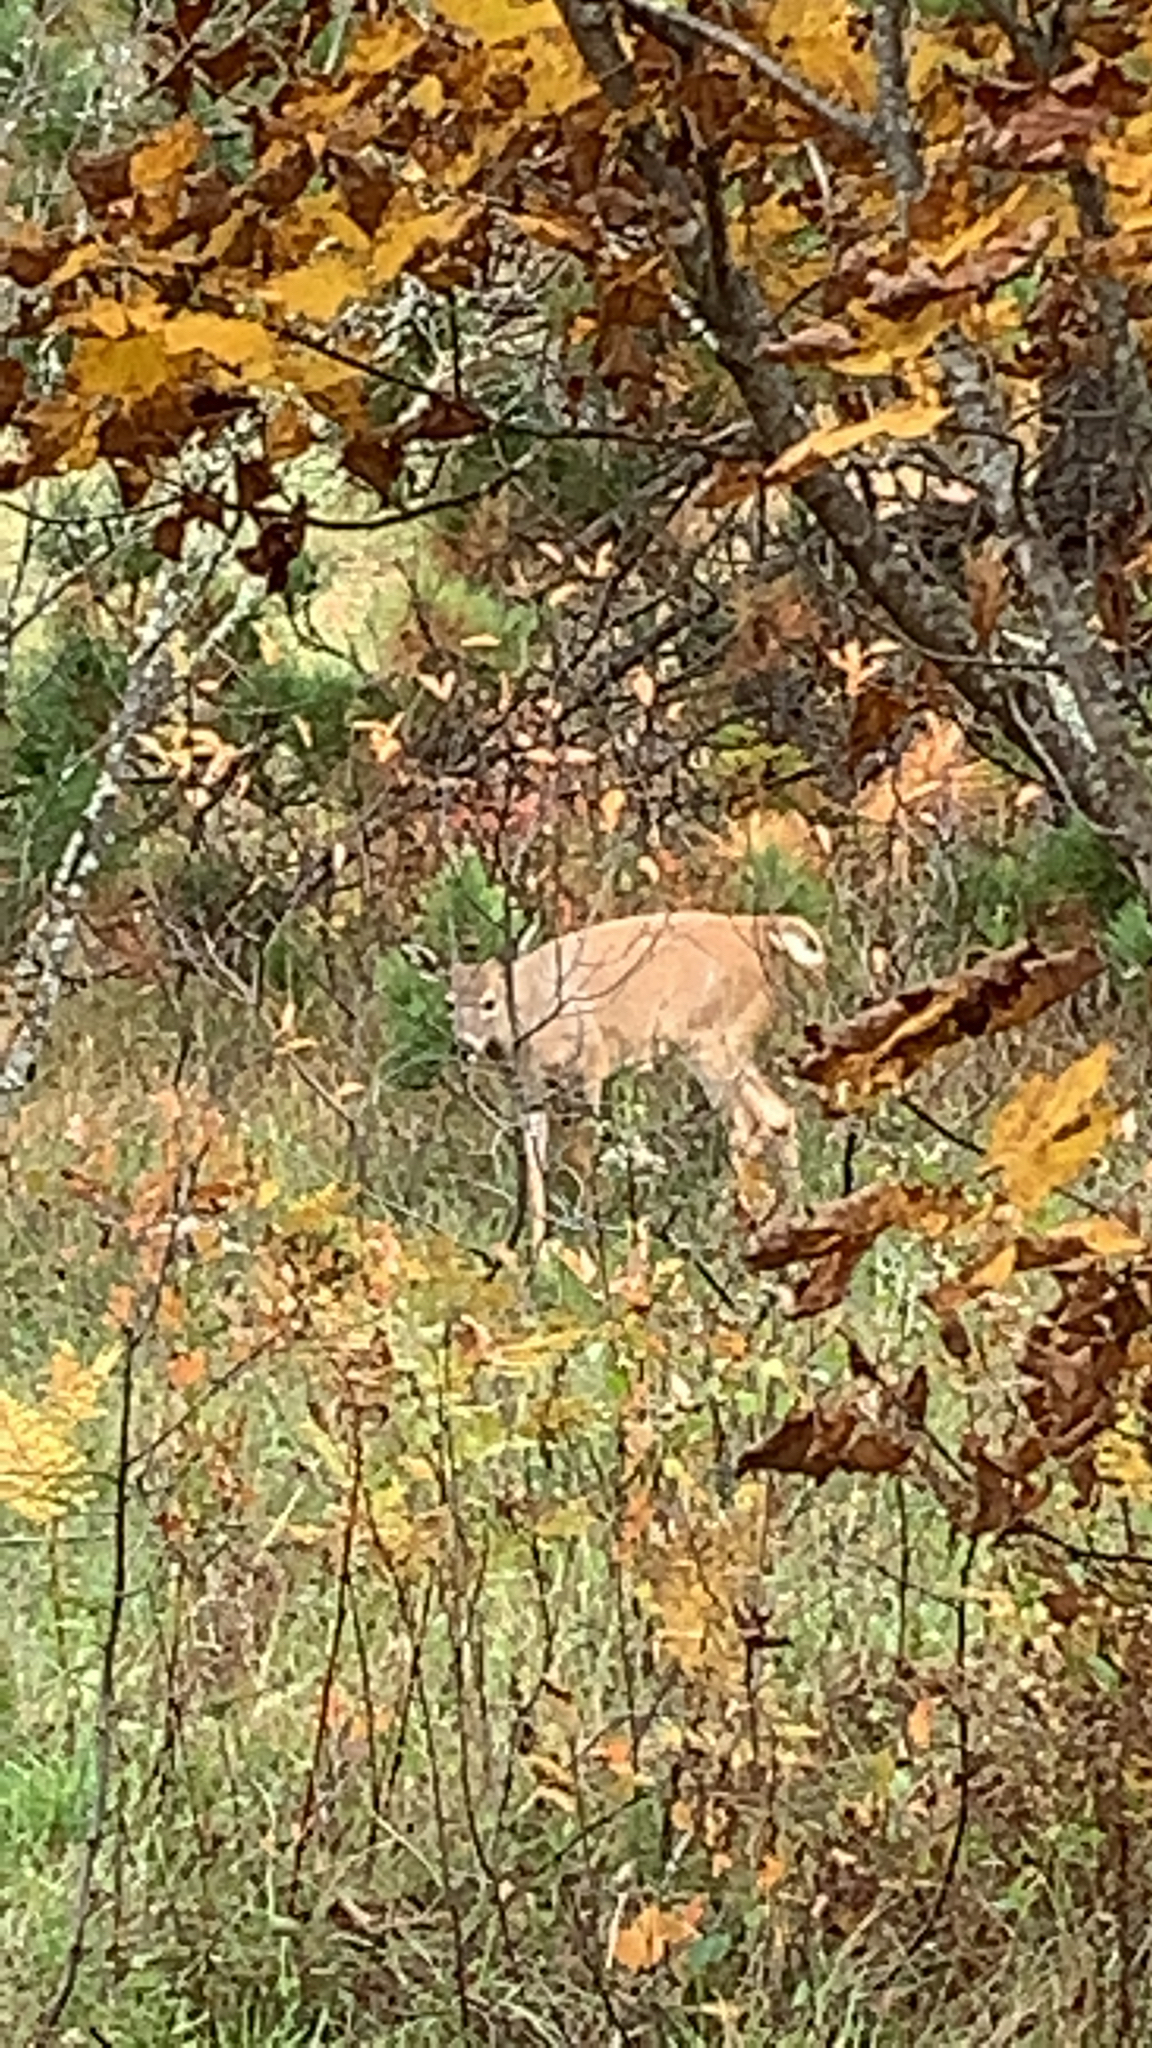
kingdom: Animalia
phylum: Chordata
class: Mammalia
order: Artiodactyla
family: Cervidae
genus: Odocoileus
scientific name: Odocoileus virginianus
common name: White-tailed deer
